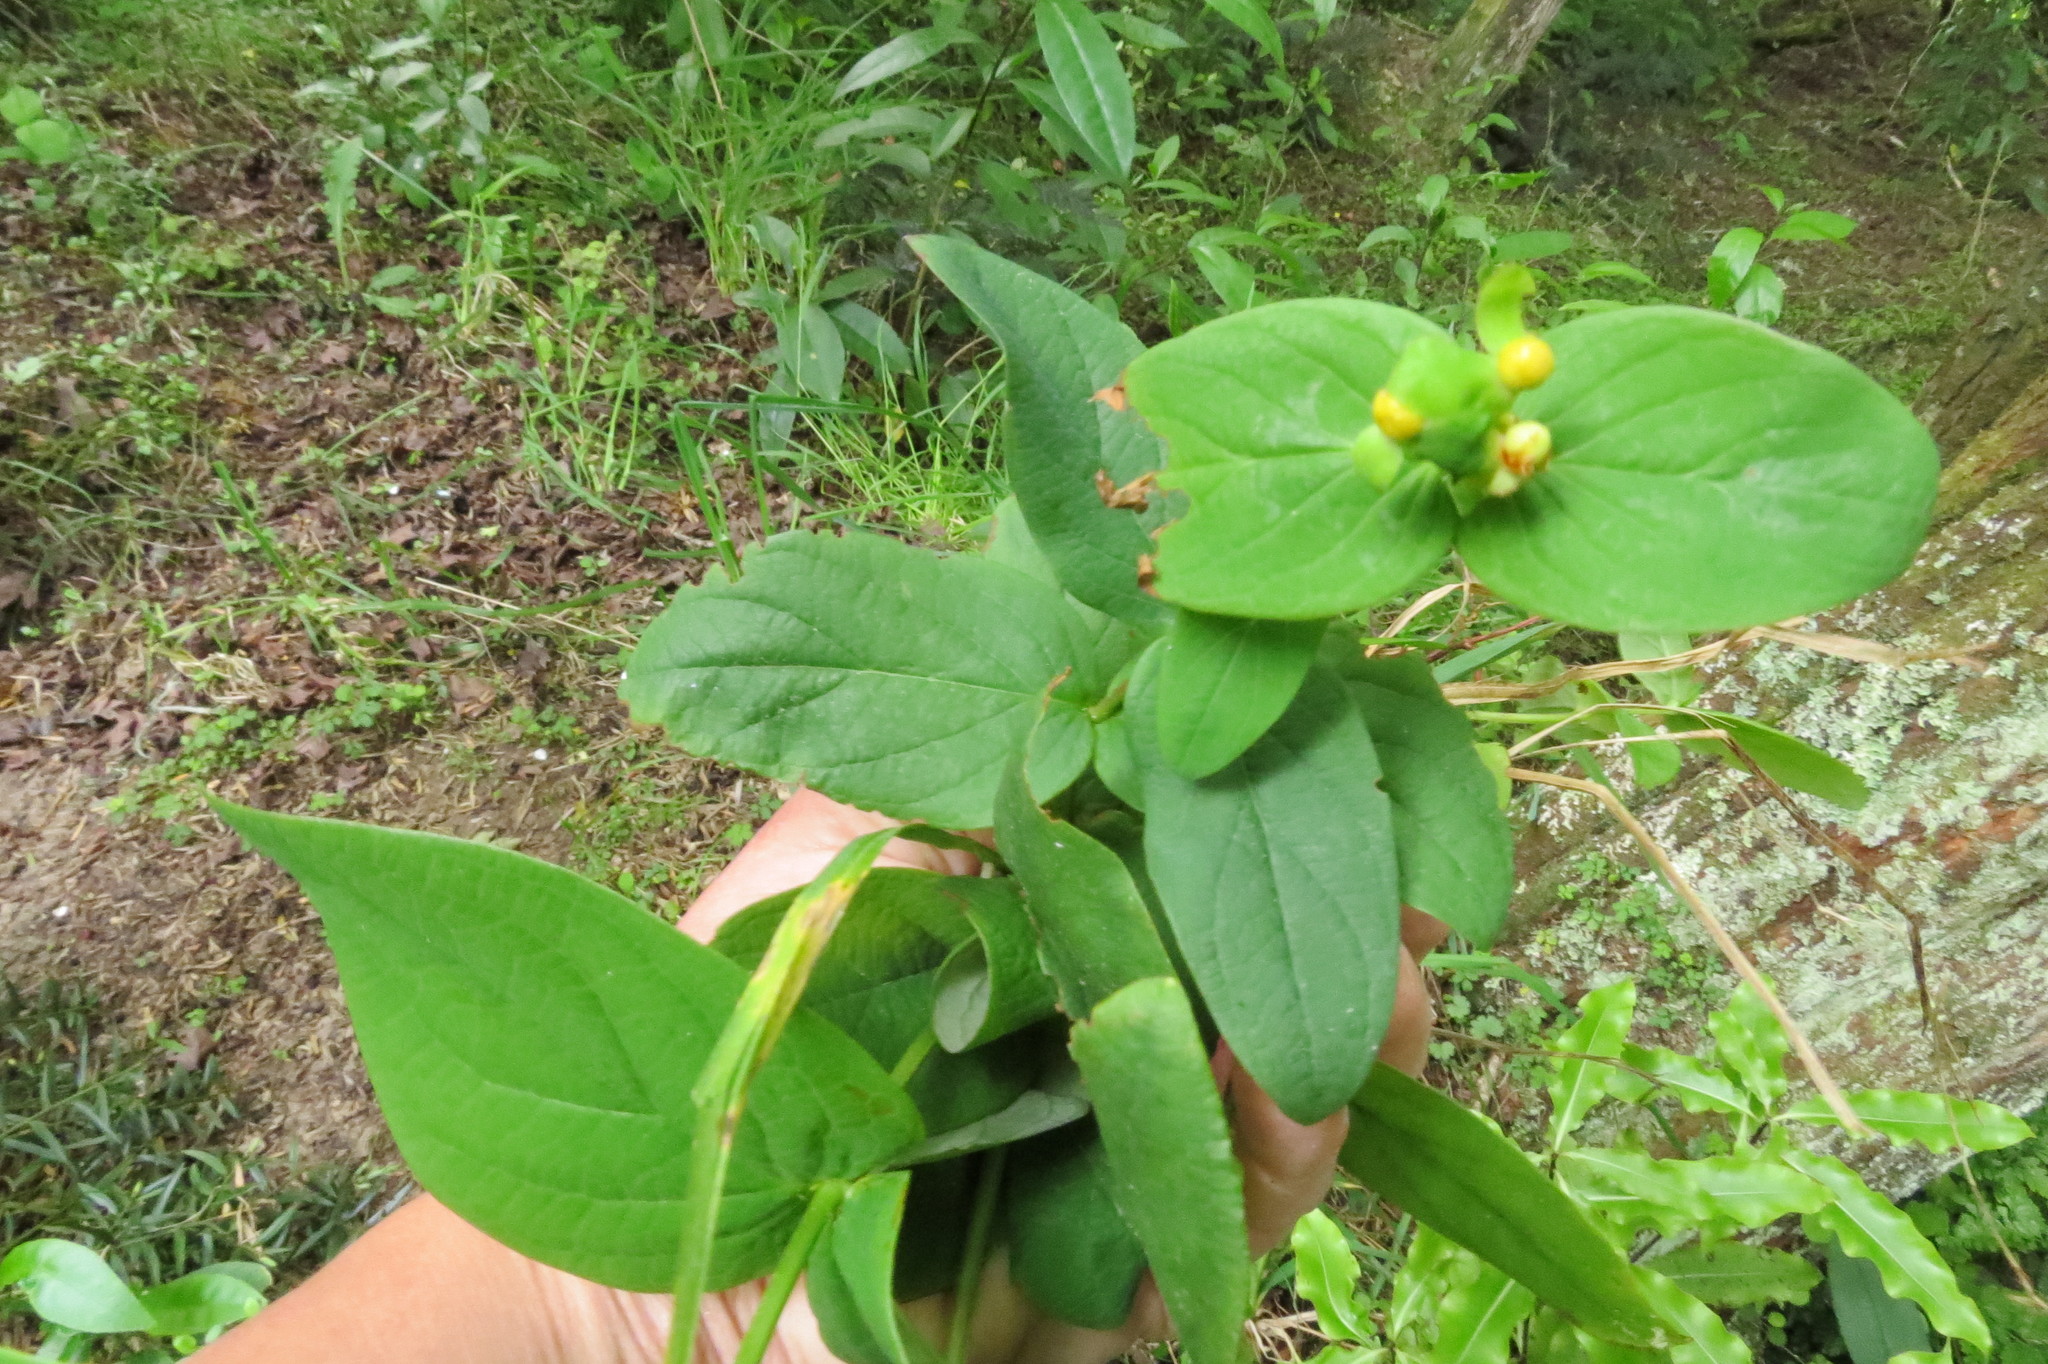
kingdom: Plantae
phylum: Tracheophyta
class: Magnoliopsida
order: Malpighiales
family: Hypericaceae
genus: Hypericum
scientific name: Hypericum androsaemum
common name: Sweet-amber
